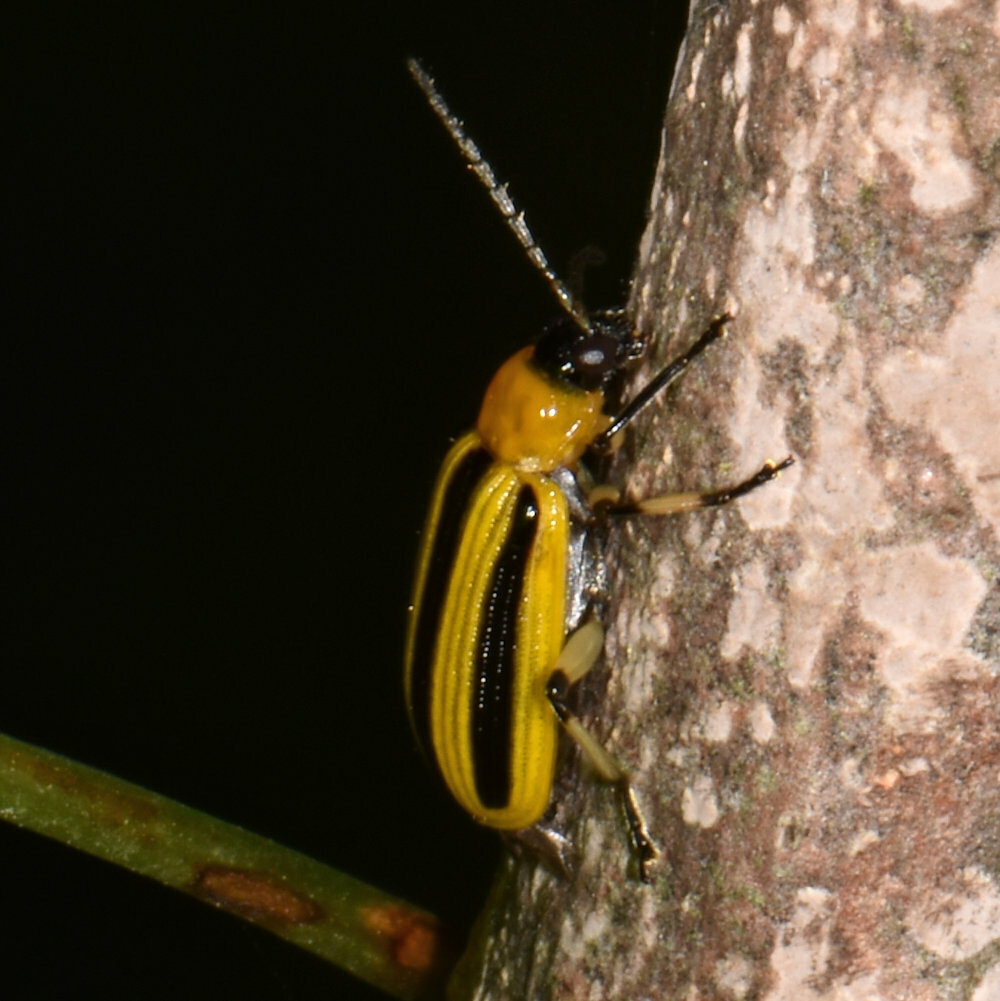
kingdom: Animalia
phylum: Arthropoda
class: Insecta
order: Coleoptera
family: Chrysomelidae
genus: Acalymma
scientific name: Acalymma vittatum
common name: Striped cucumber beetle
